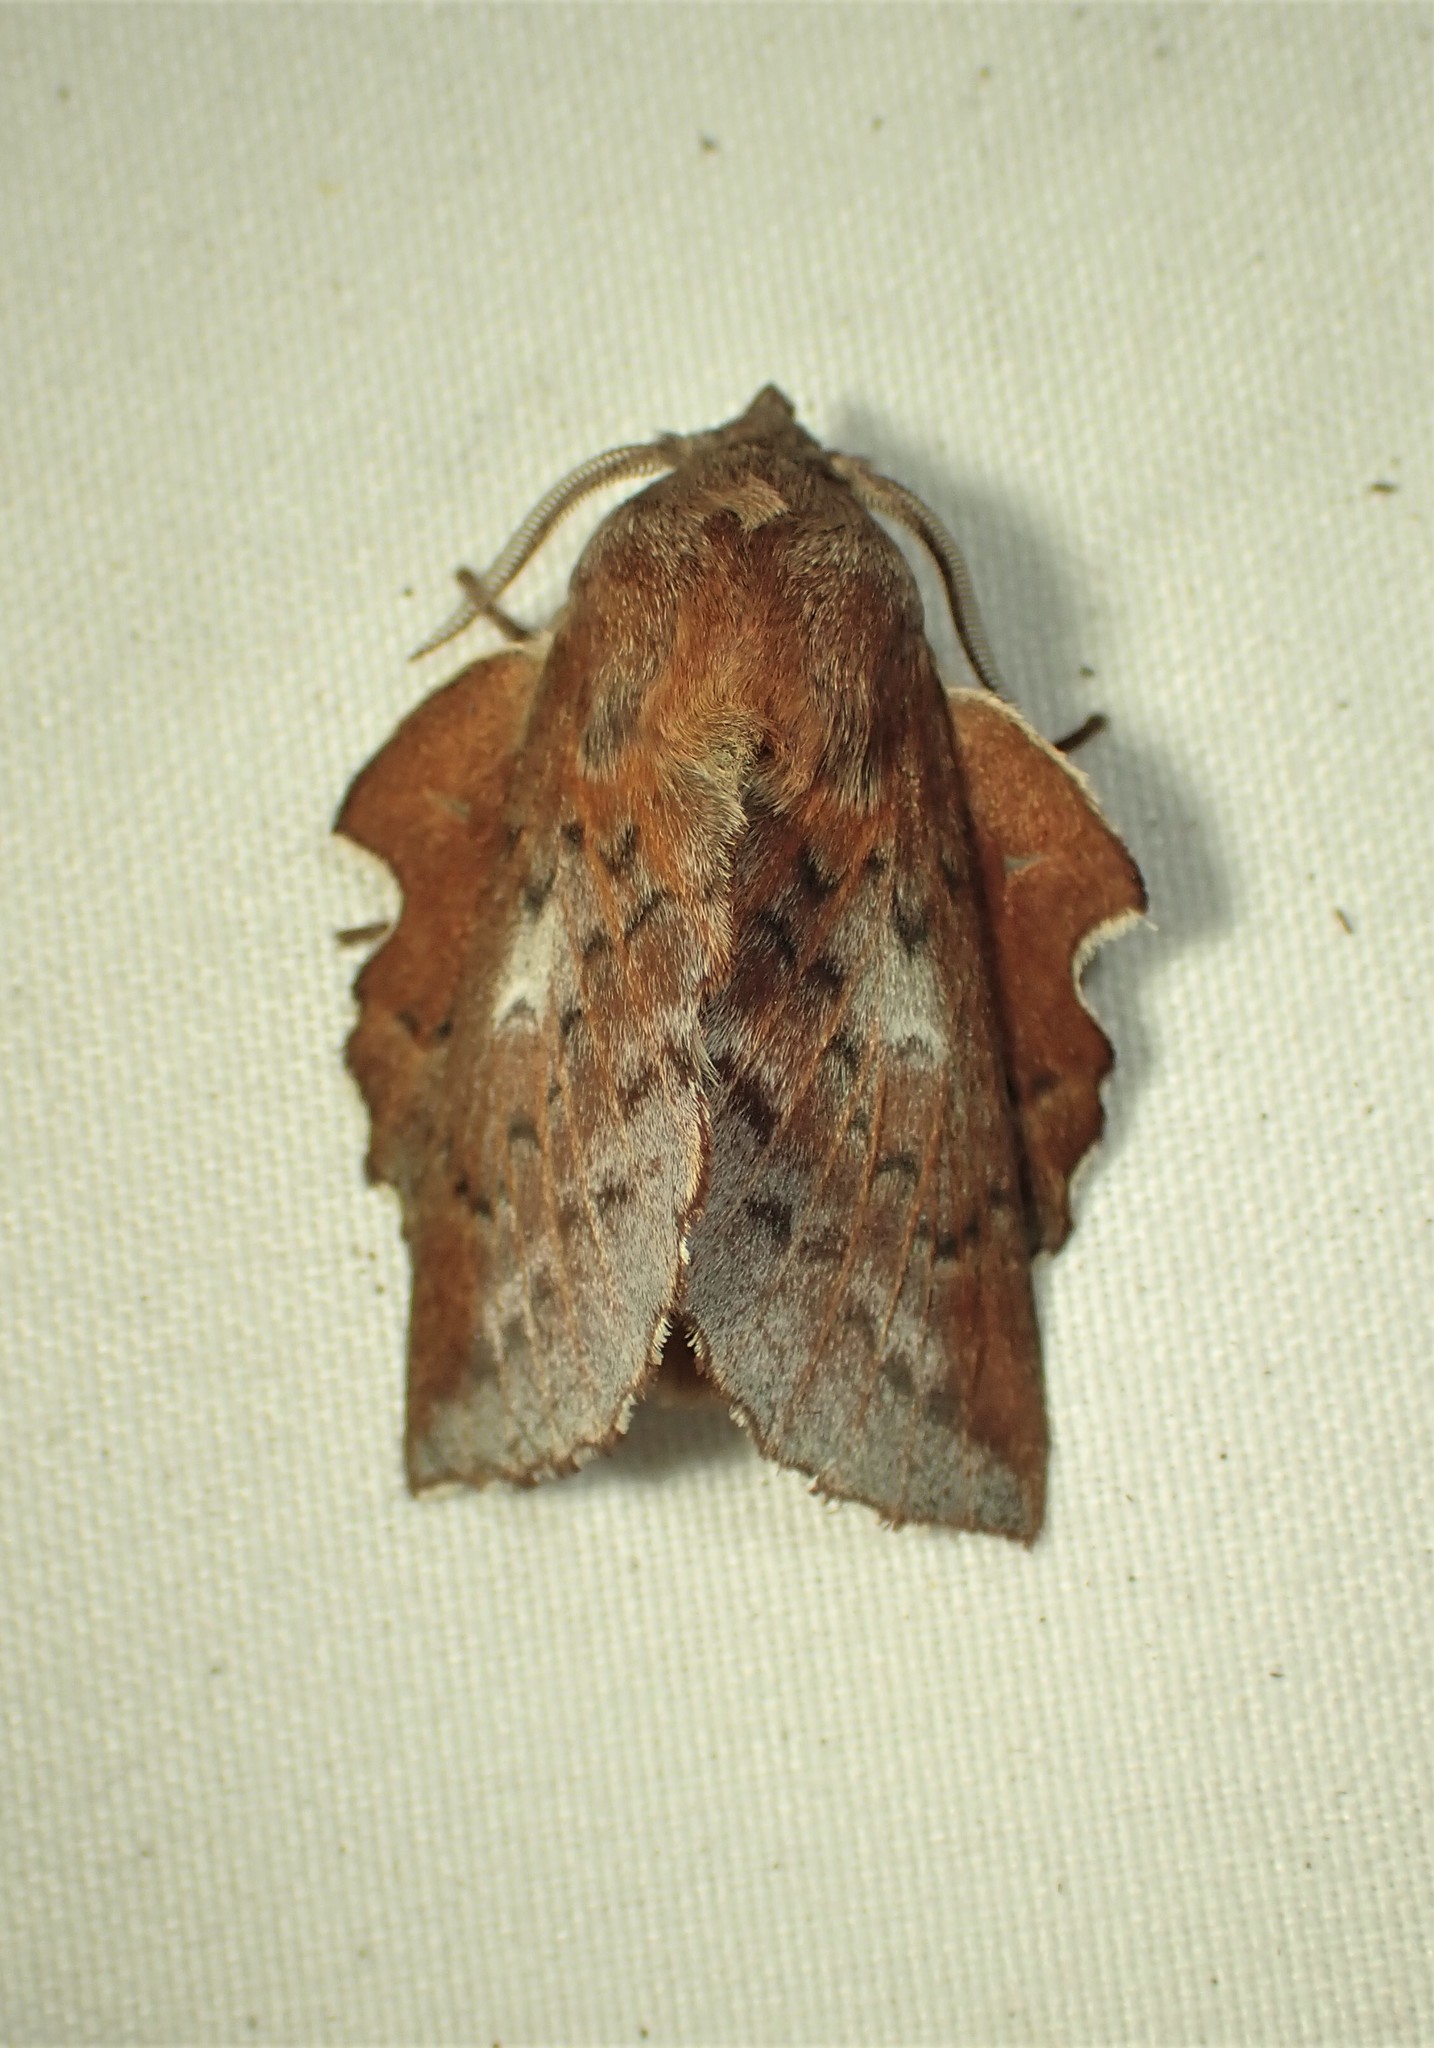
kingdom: Animalia
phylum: Arthropoda
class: Insecta
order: Lepidoptera
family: Lasiocampidae
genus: Phyllodesma
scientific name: Phyllodesma americana
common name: American lappet moth
